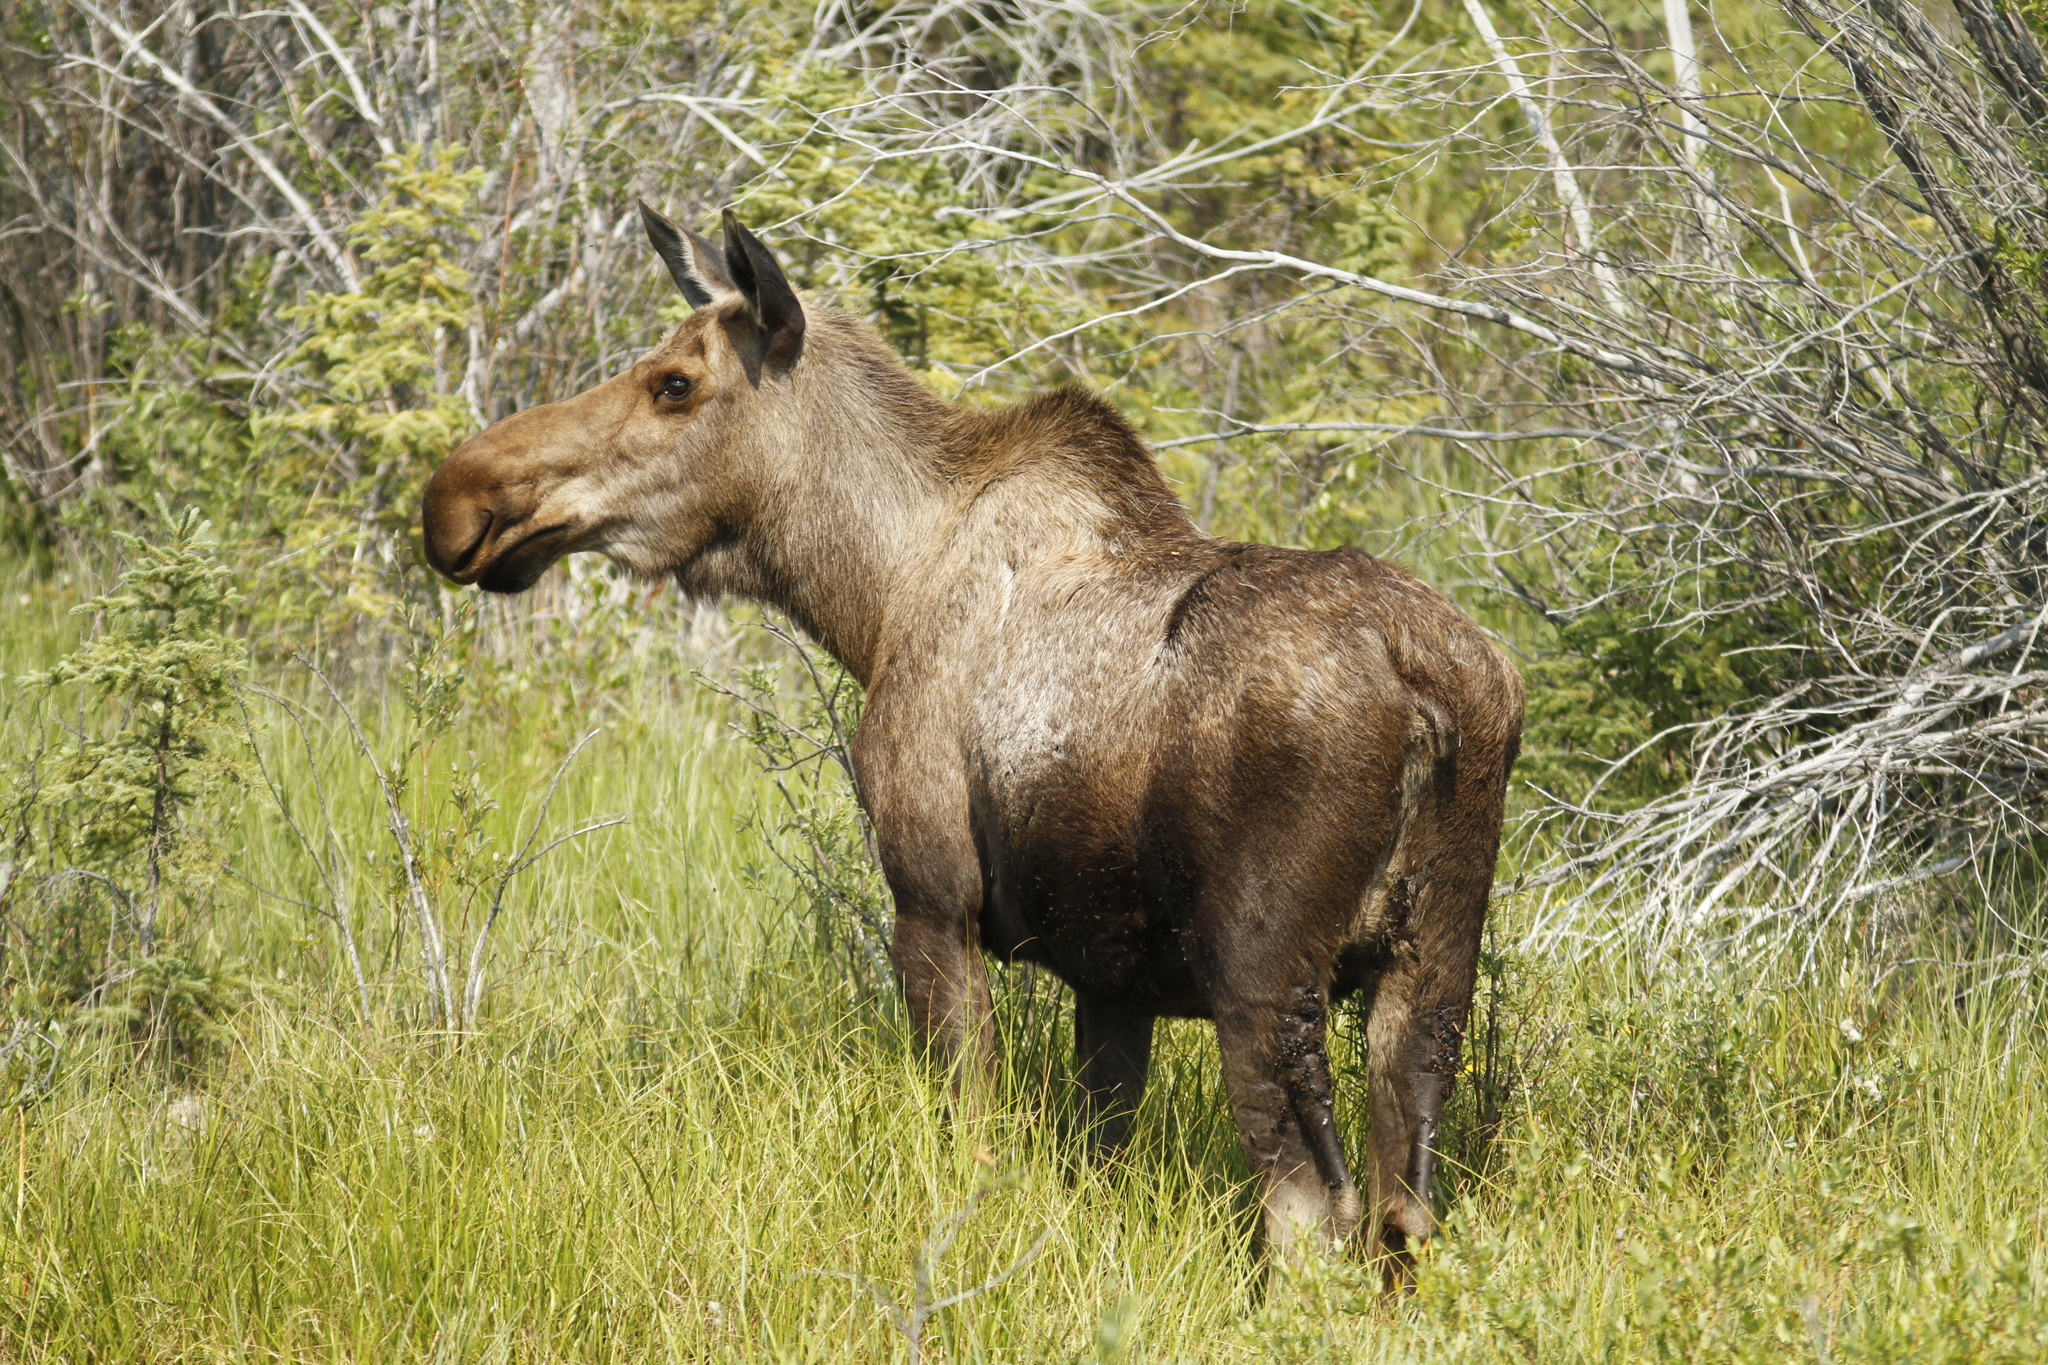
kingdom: Animalia
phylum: Chordata
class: Mammalia
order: Artiodactyla
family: Cervidae
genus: Alces
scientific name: Alces alces
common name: Moose
